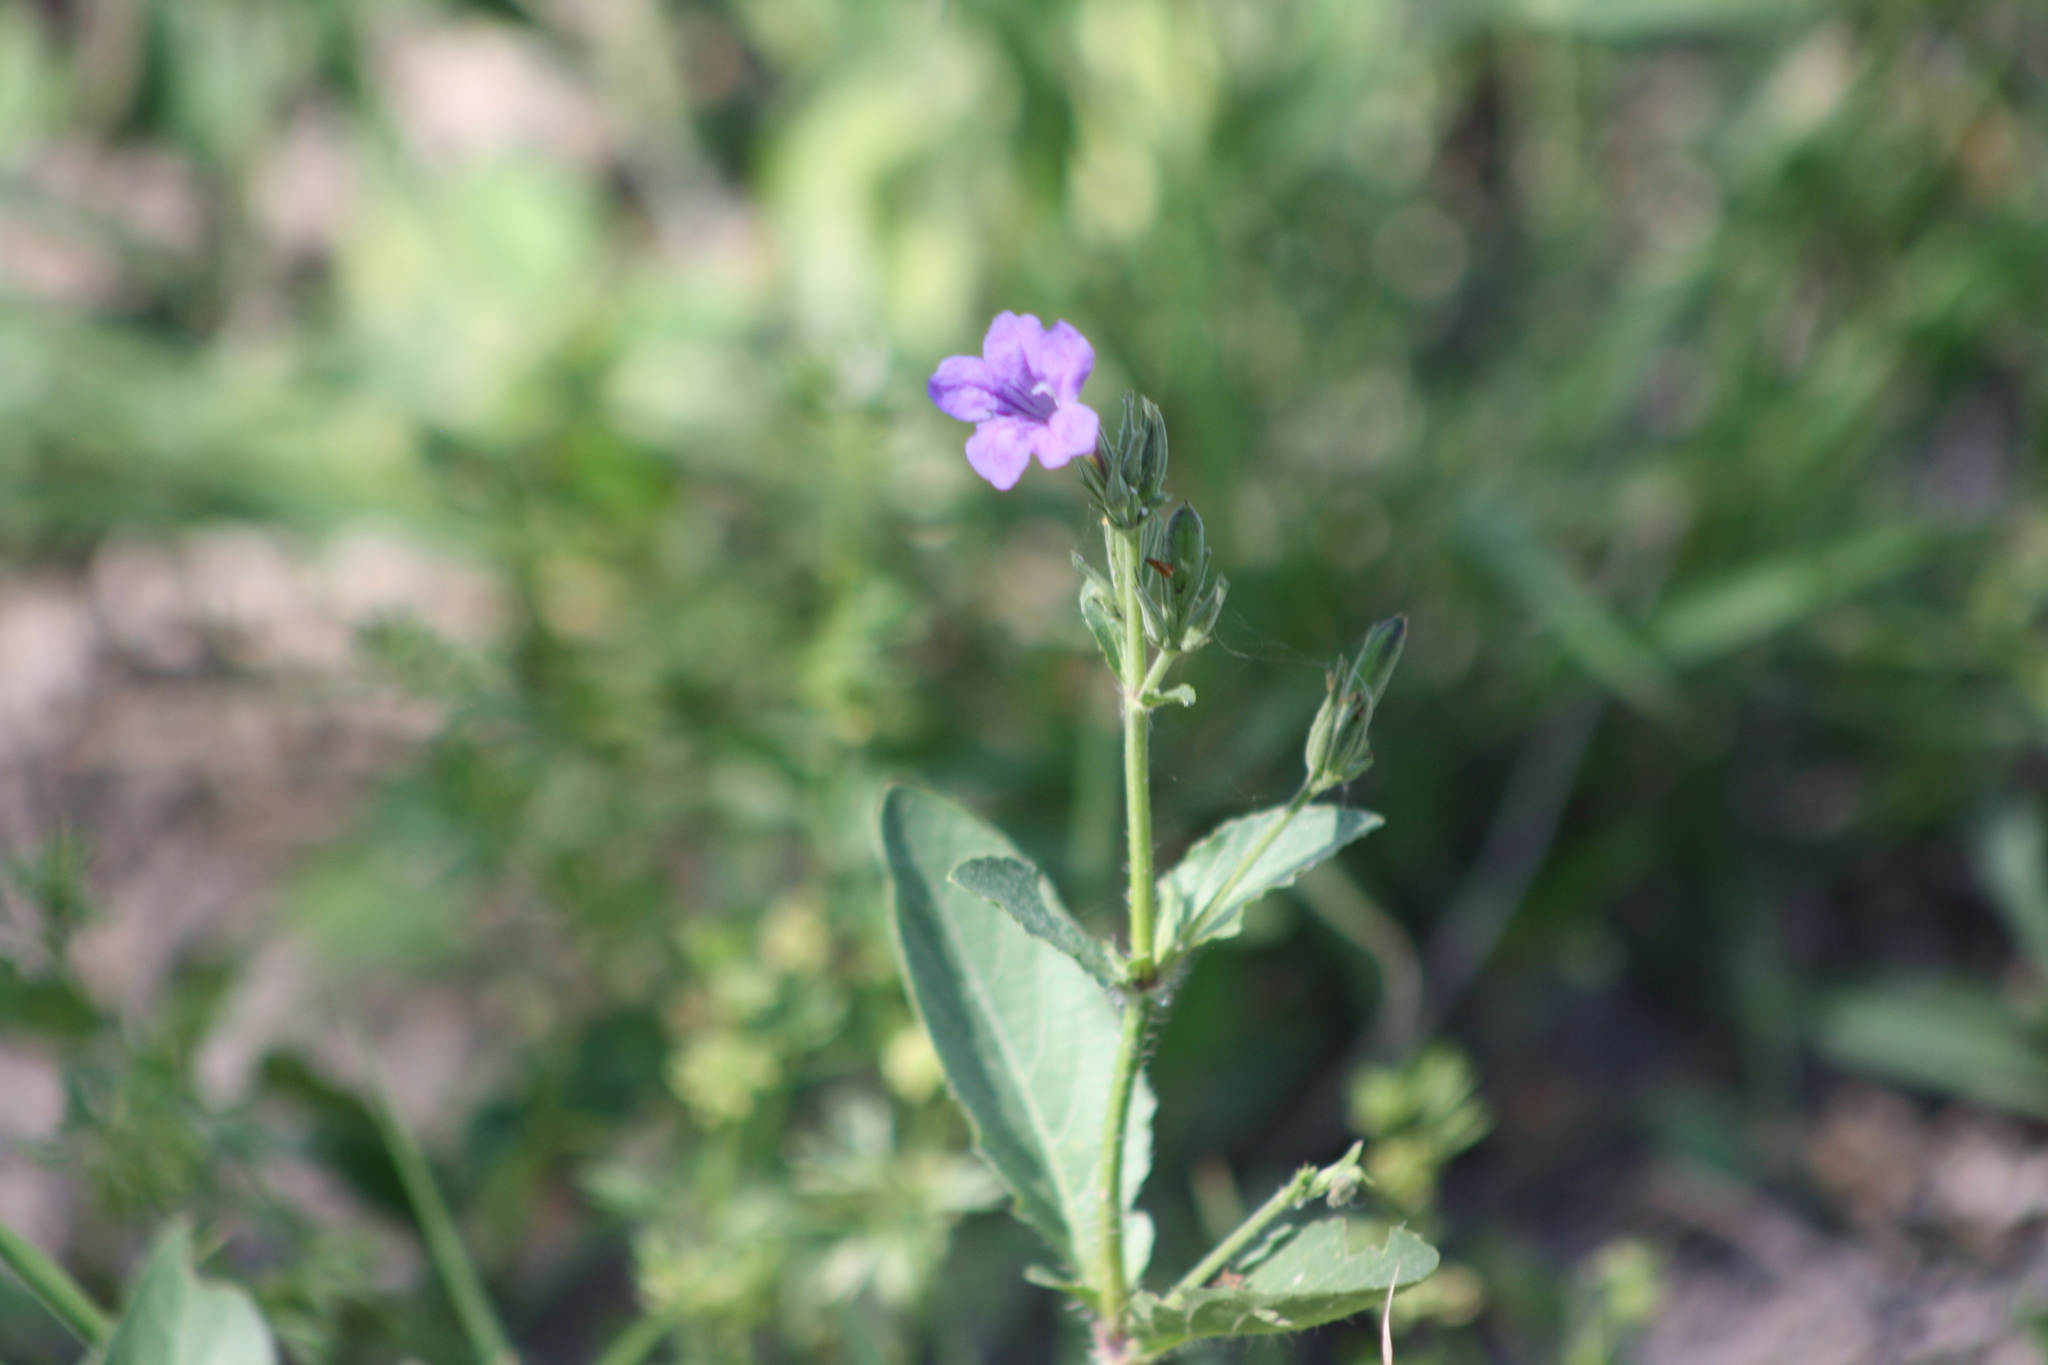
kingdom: Plantae
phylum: Tracheophyta
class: Magnoliopsida
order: Lamiales
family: Acanthaceae
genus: Ruellia
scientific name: Ruellia ciliatiflora
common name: Hairyflower wild petunia
